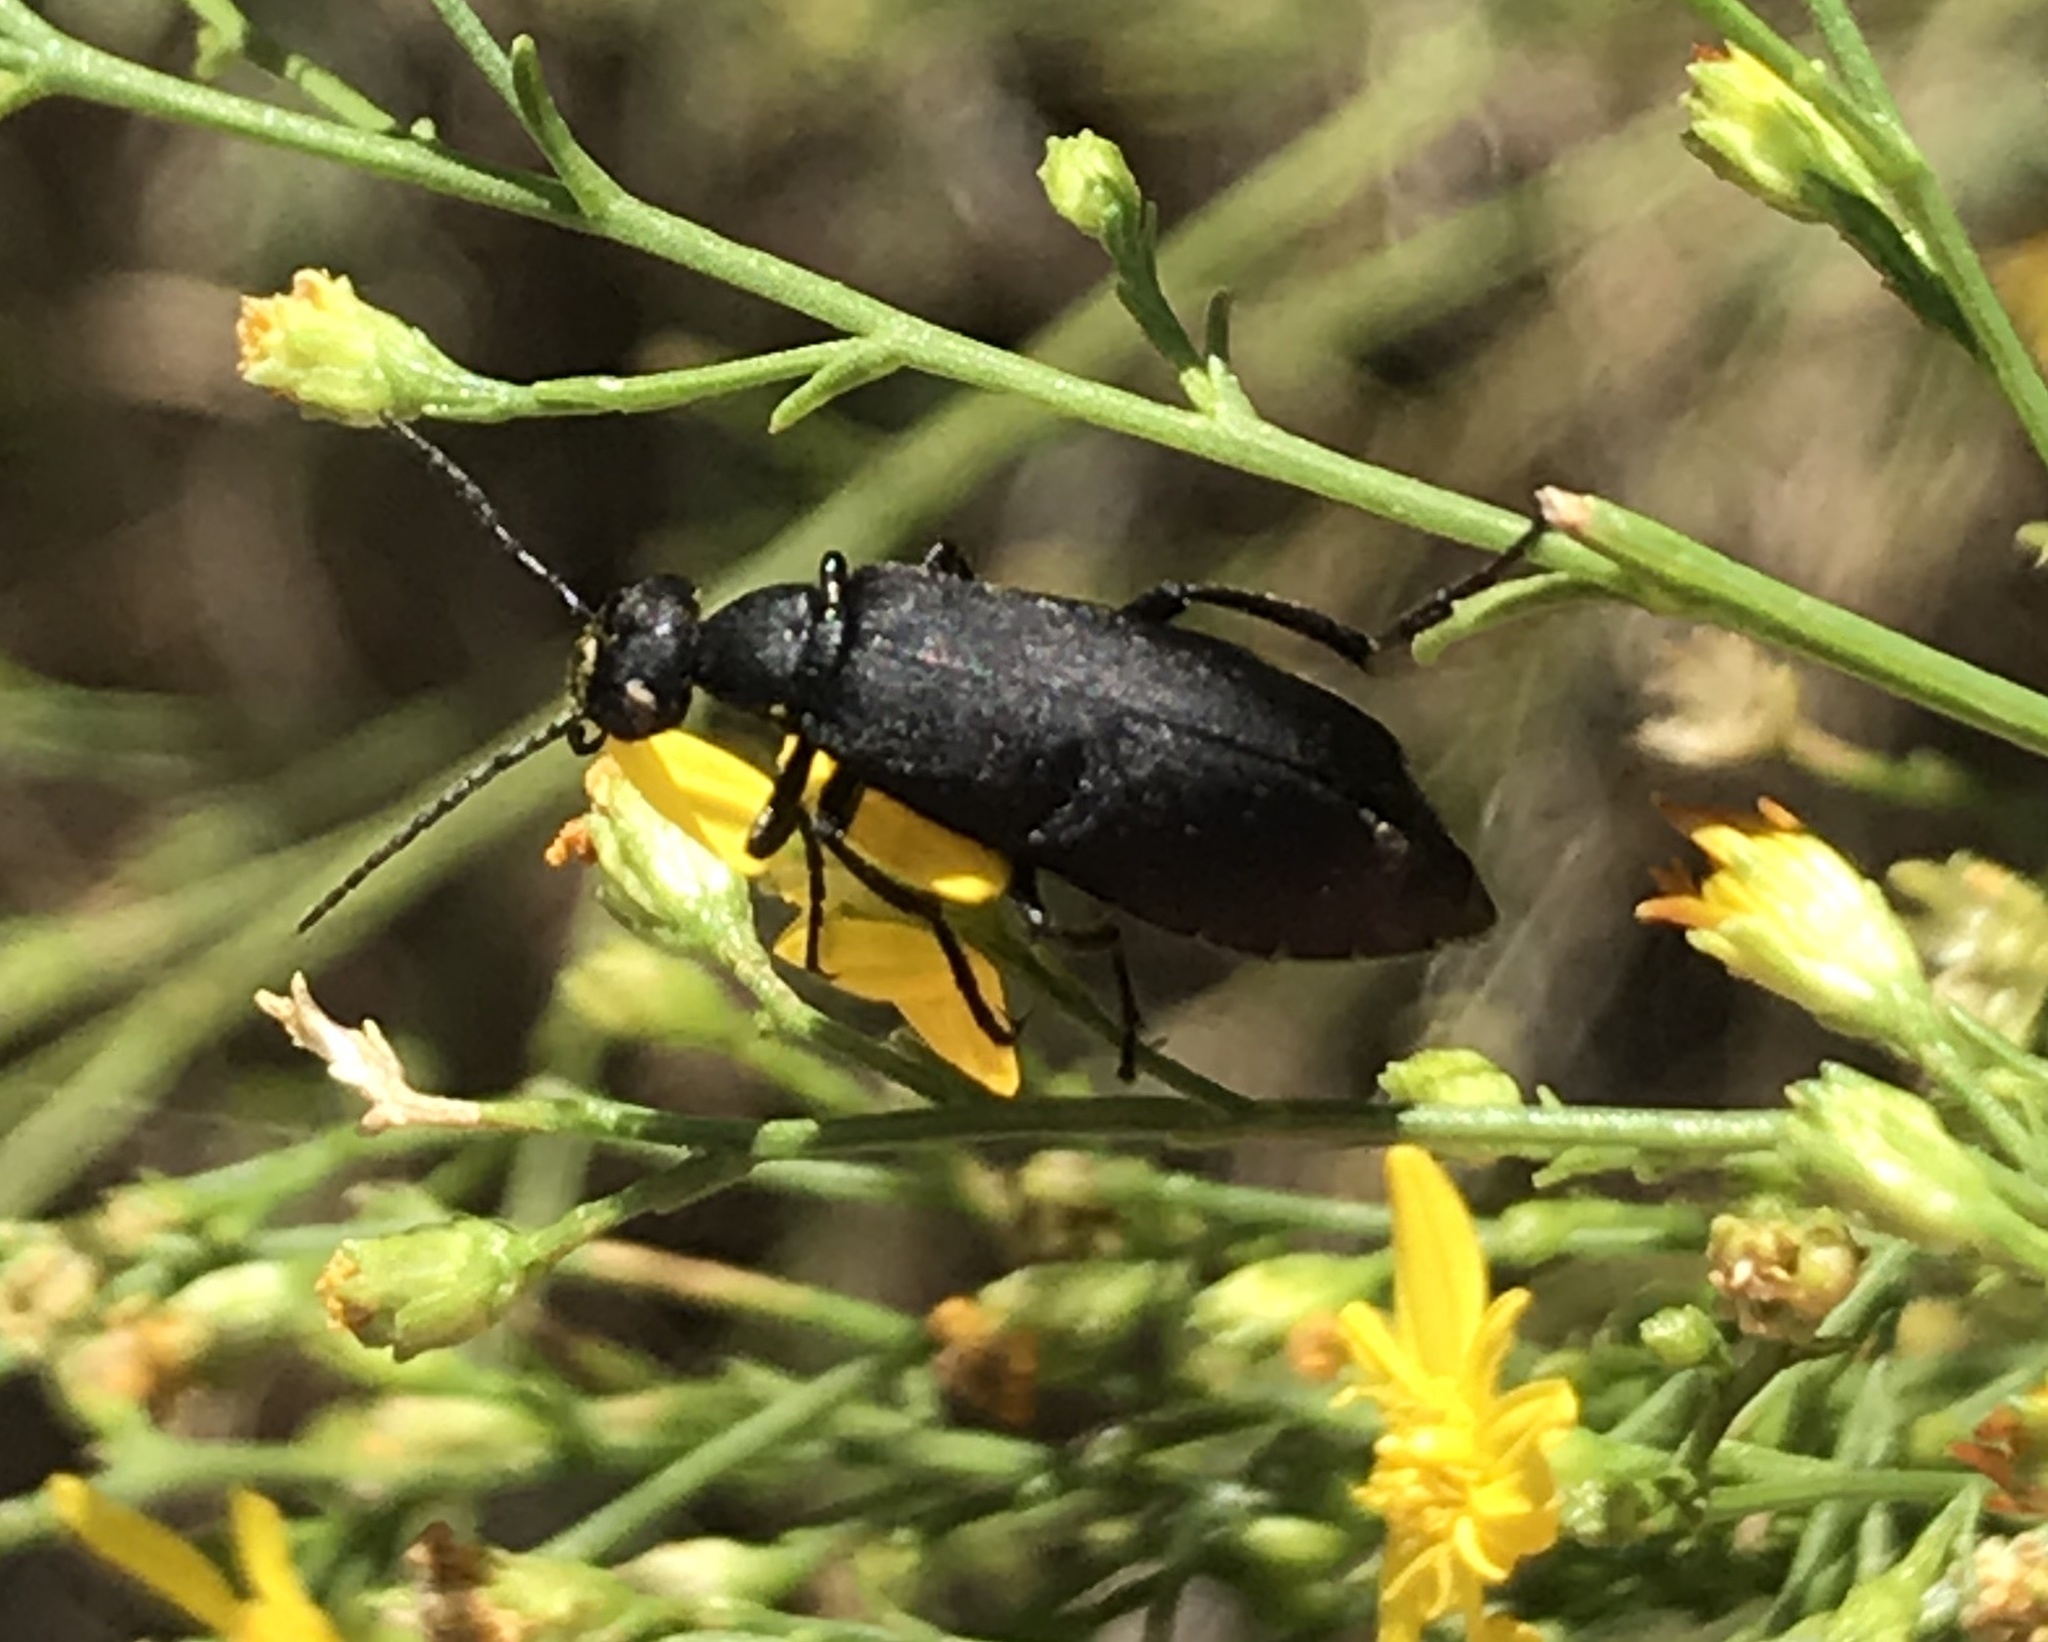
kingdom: Animalia
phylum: Arthropoda
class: Insecta
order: Coleoptera
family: Meloidae
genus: Epicauta
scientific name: Epicauta pensylvanica
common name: Black blister beetle
